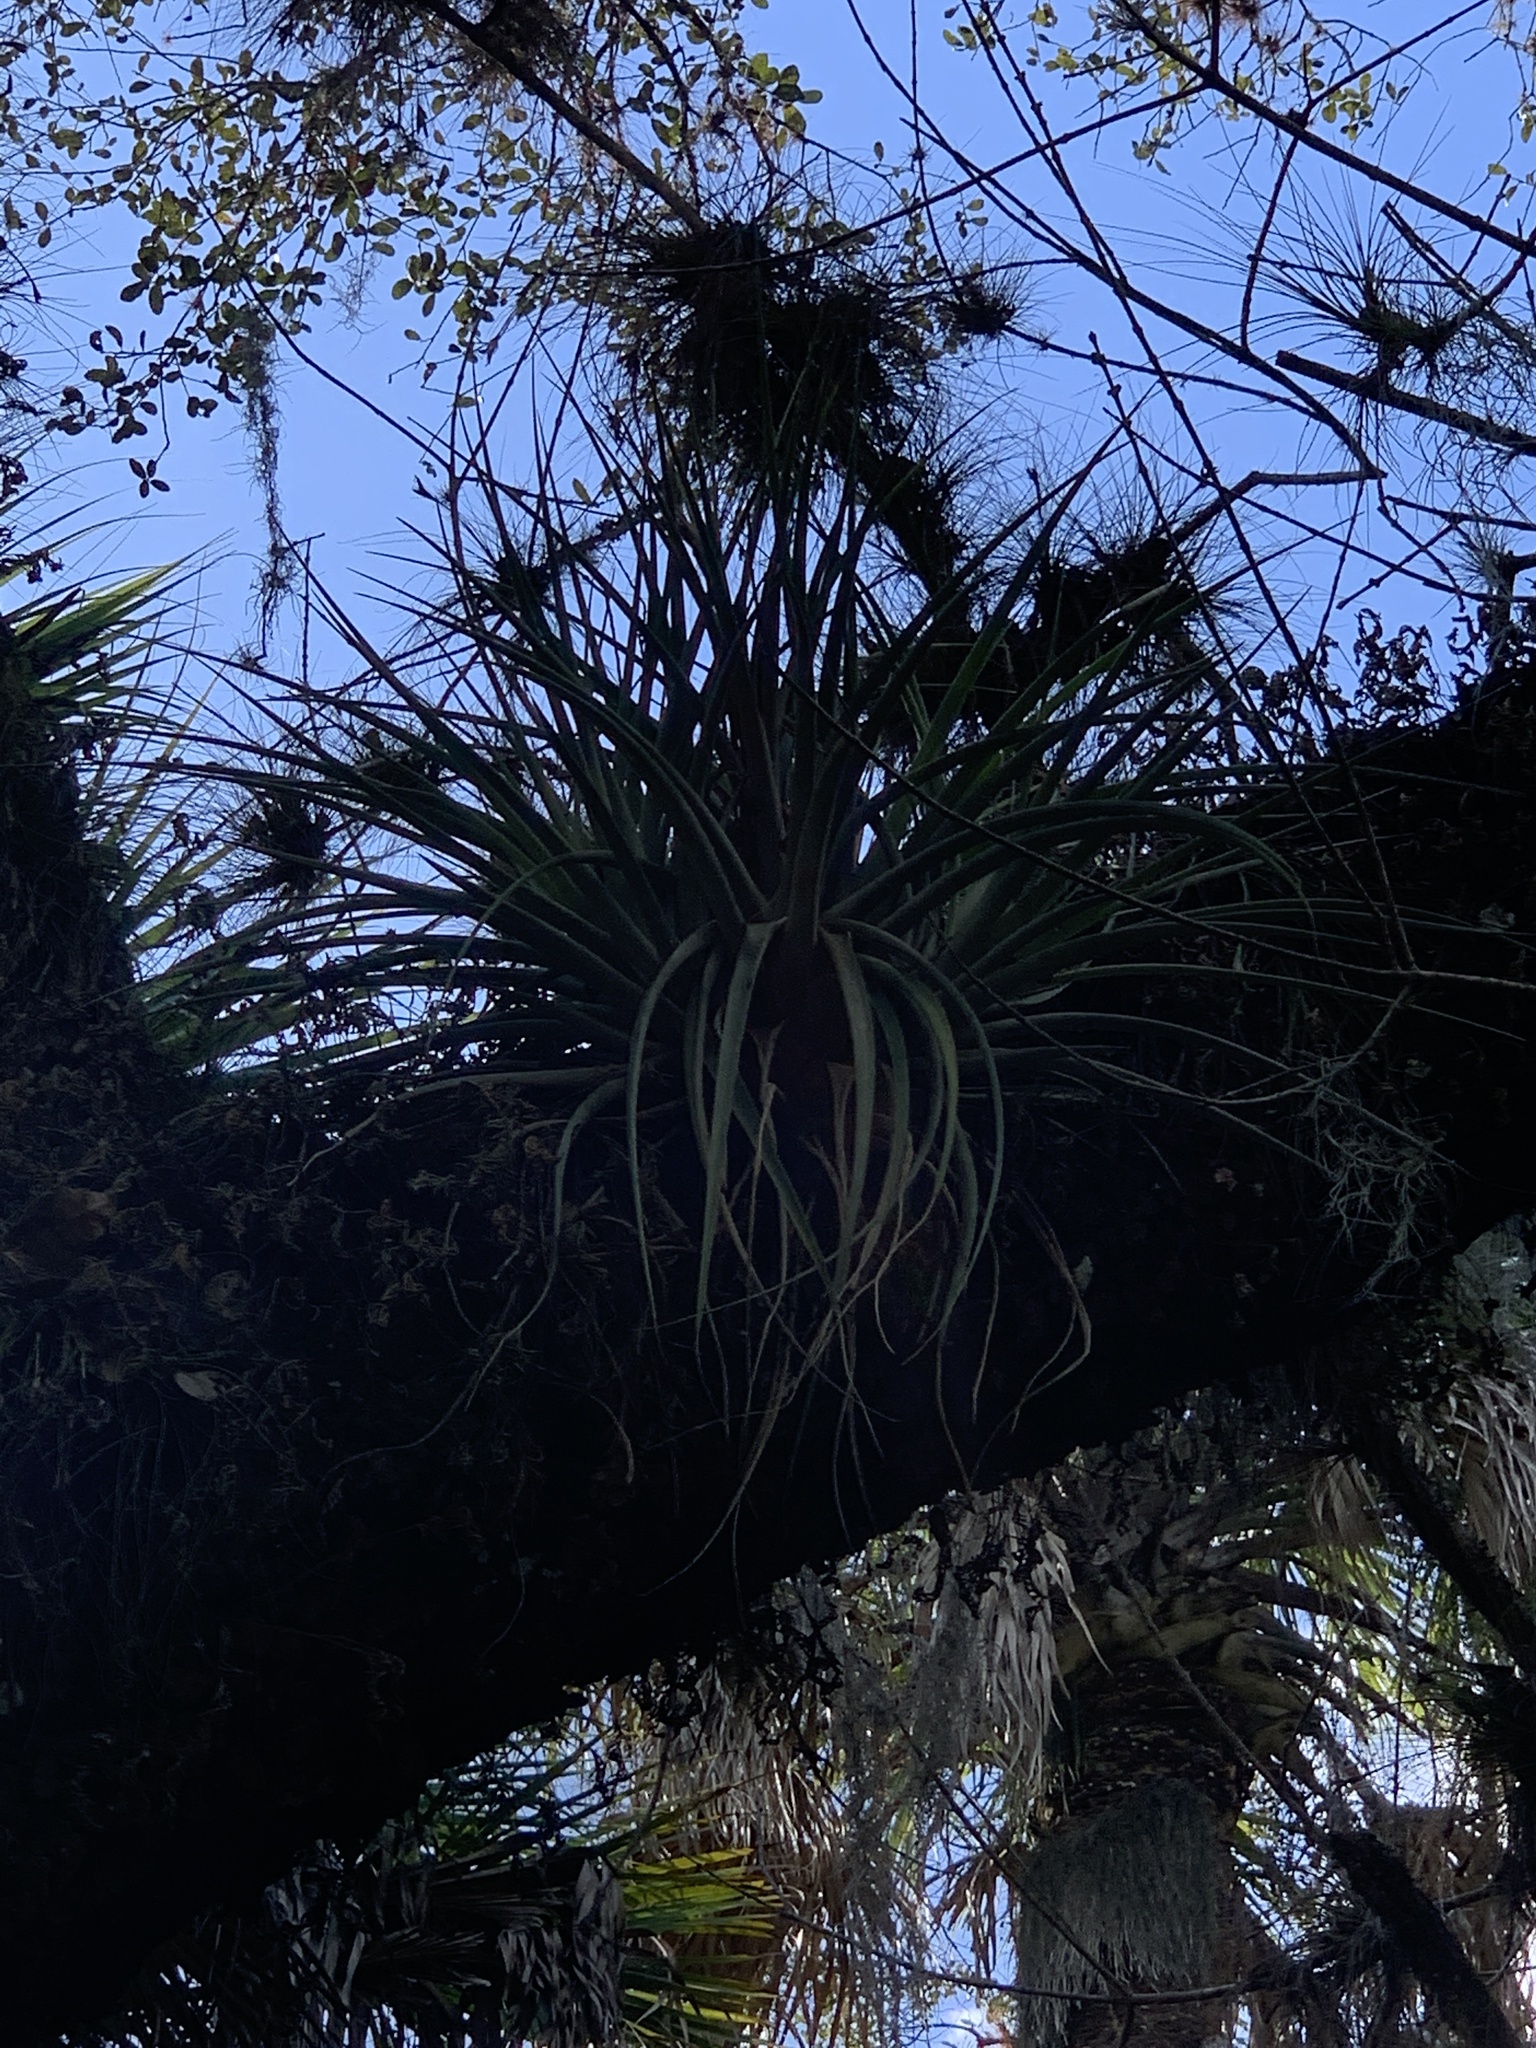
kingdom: Plantae
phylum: Tracheophyta
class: Liliopsida
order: Poales
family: Bromeliaceae
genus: Tillandsia
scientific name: Tillandsia fasciculata
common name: Giant airplant
